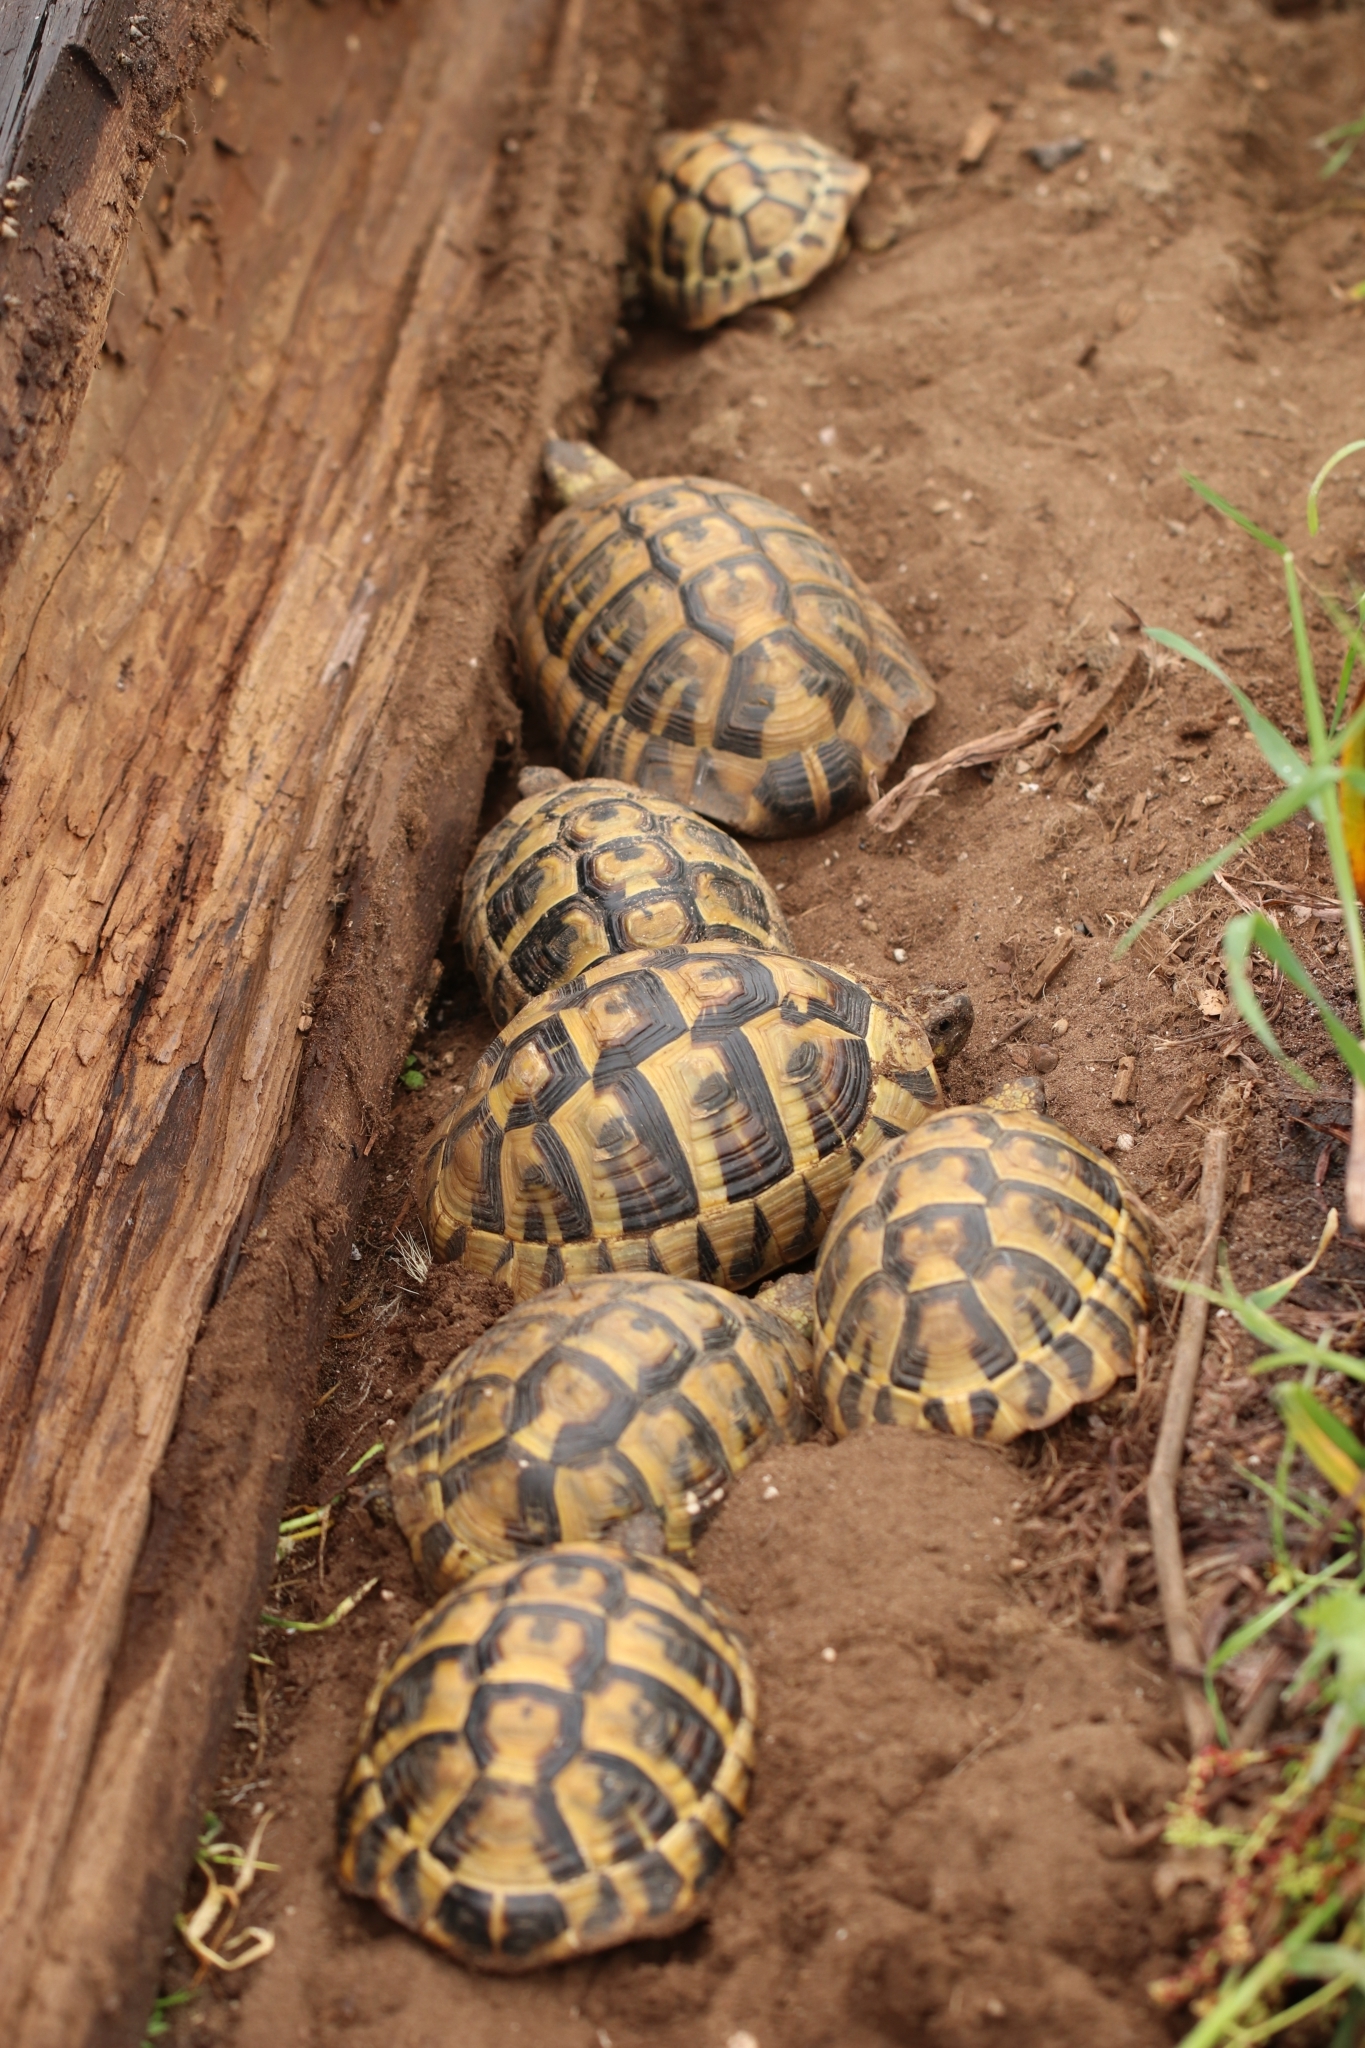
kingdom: Animalia
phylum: Chordata
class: Testudines
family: Testudinidae
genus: Testudo
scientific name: Testudo hermanni
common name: Hermann's tortoise
